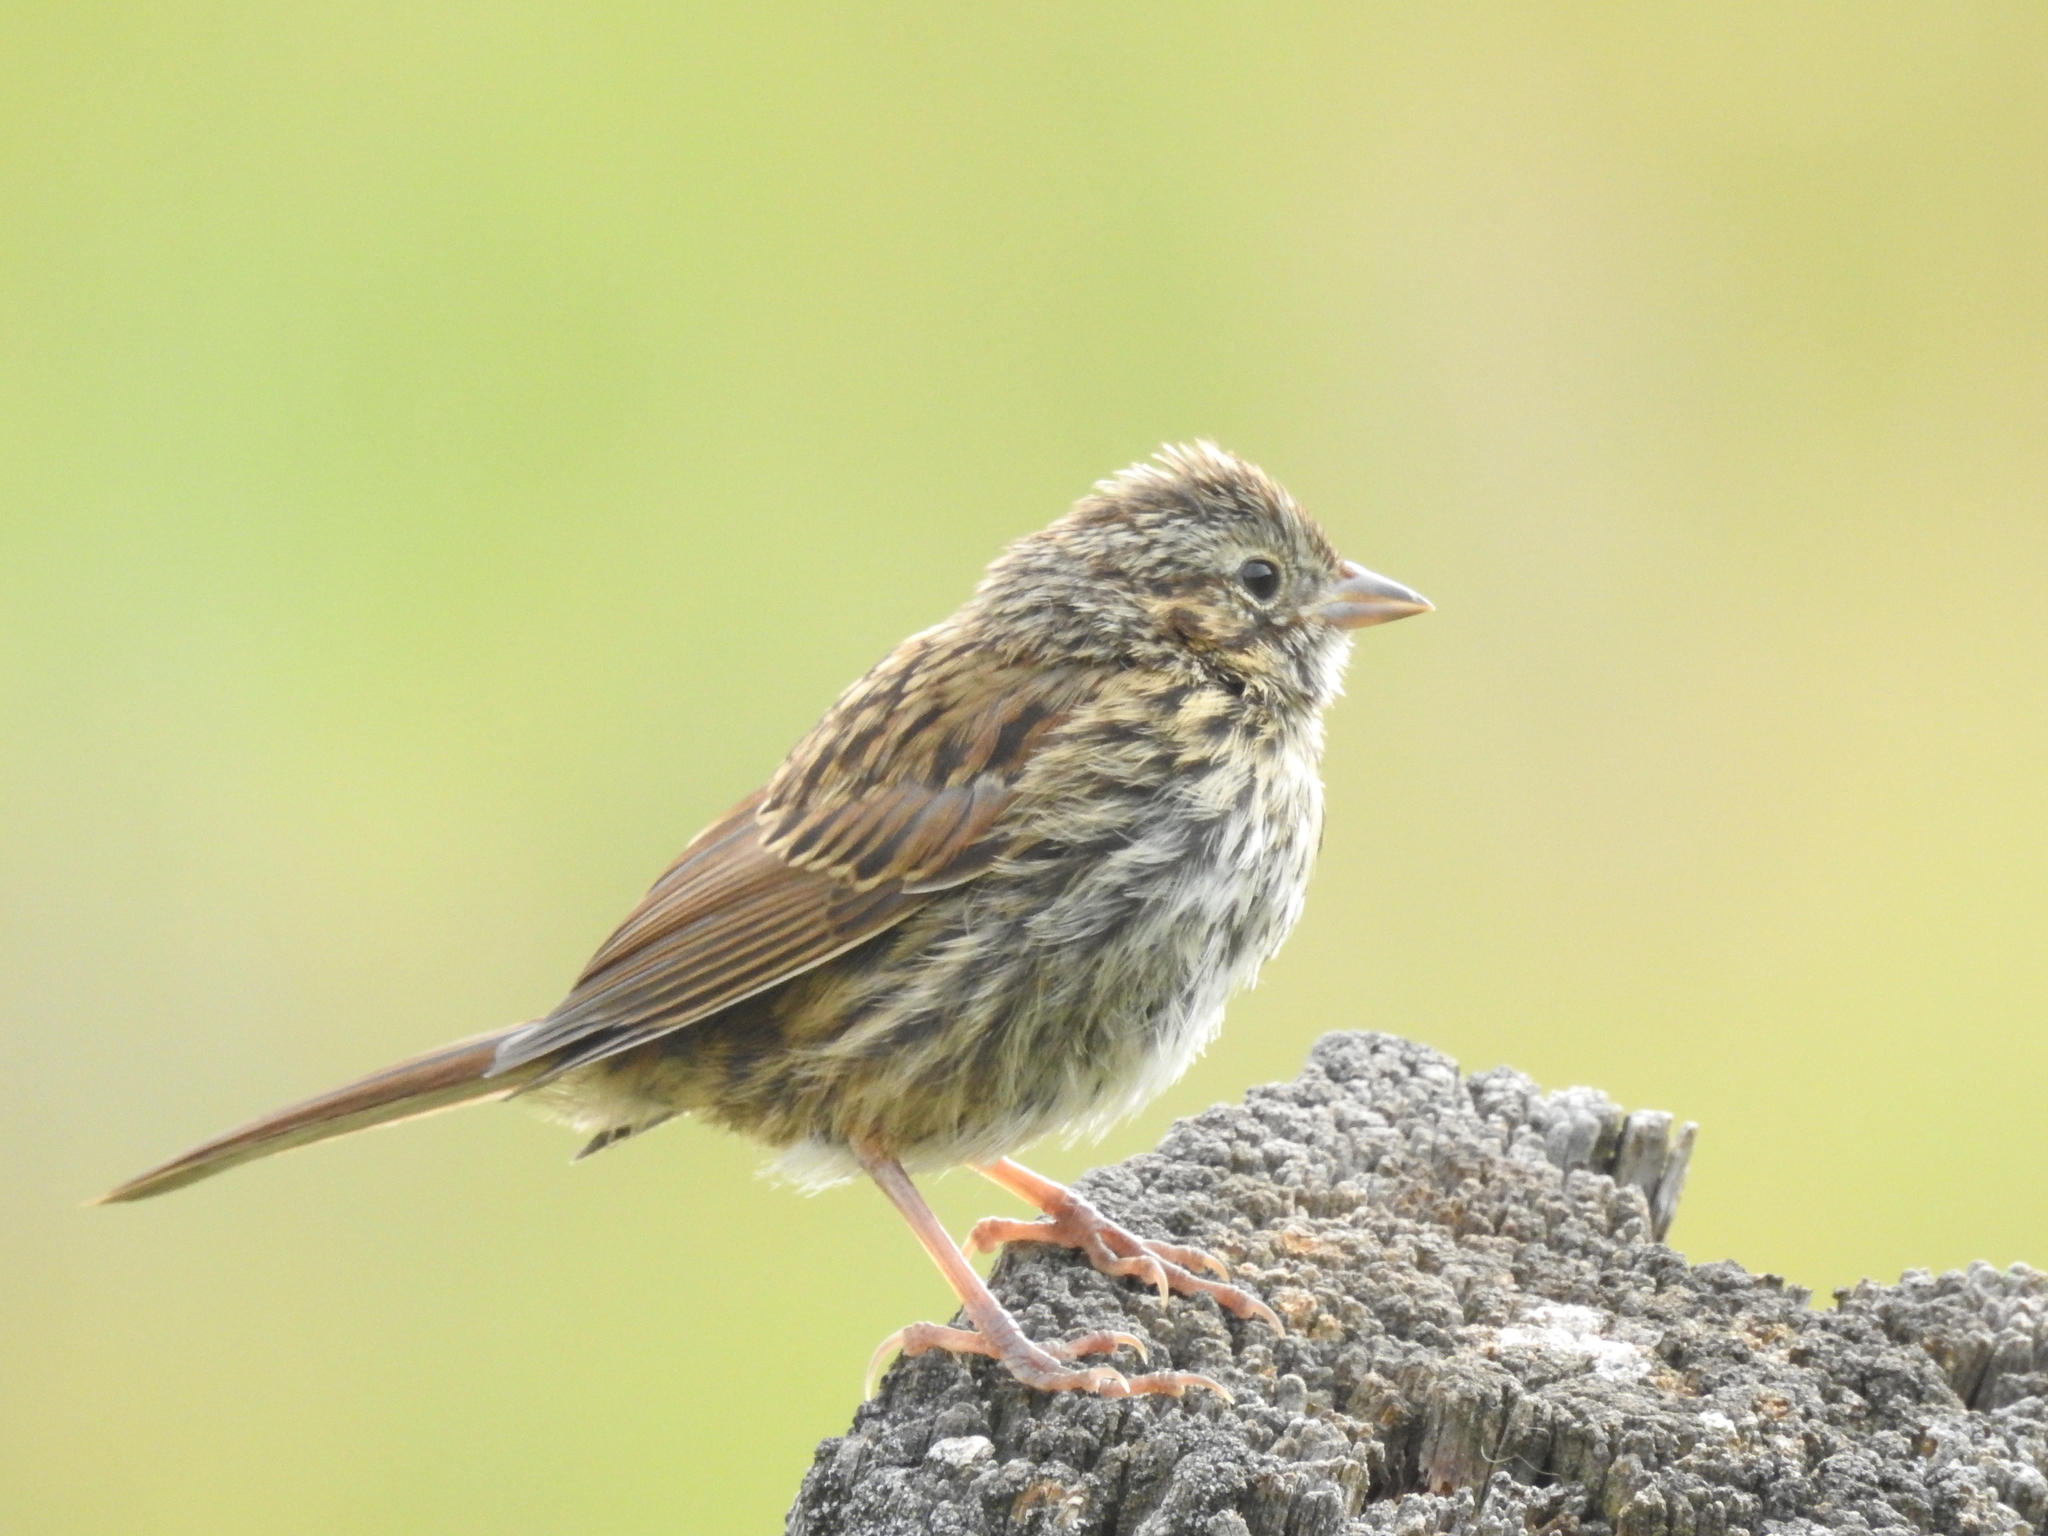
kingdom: Animalia
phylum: Chordata
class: Aves
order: Passeriformes
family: Passerellidae
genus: Melospiza
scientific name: Melospiza lincolnii
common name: Lincoln's sparrow
